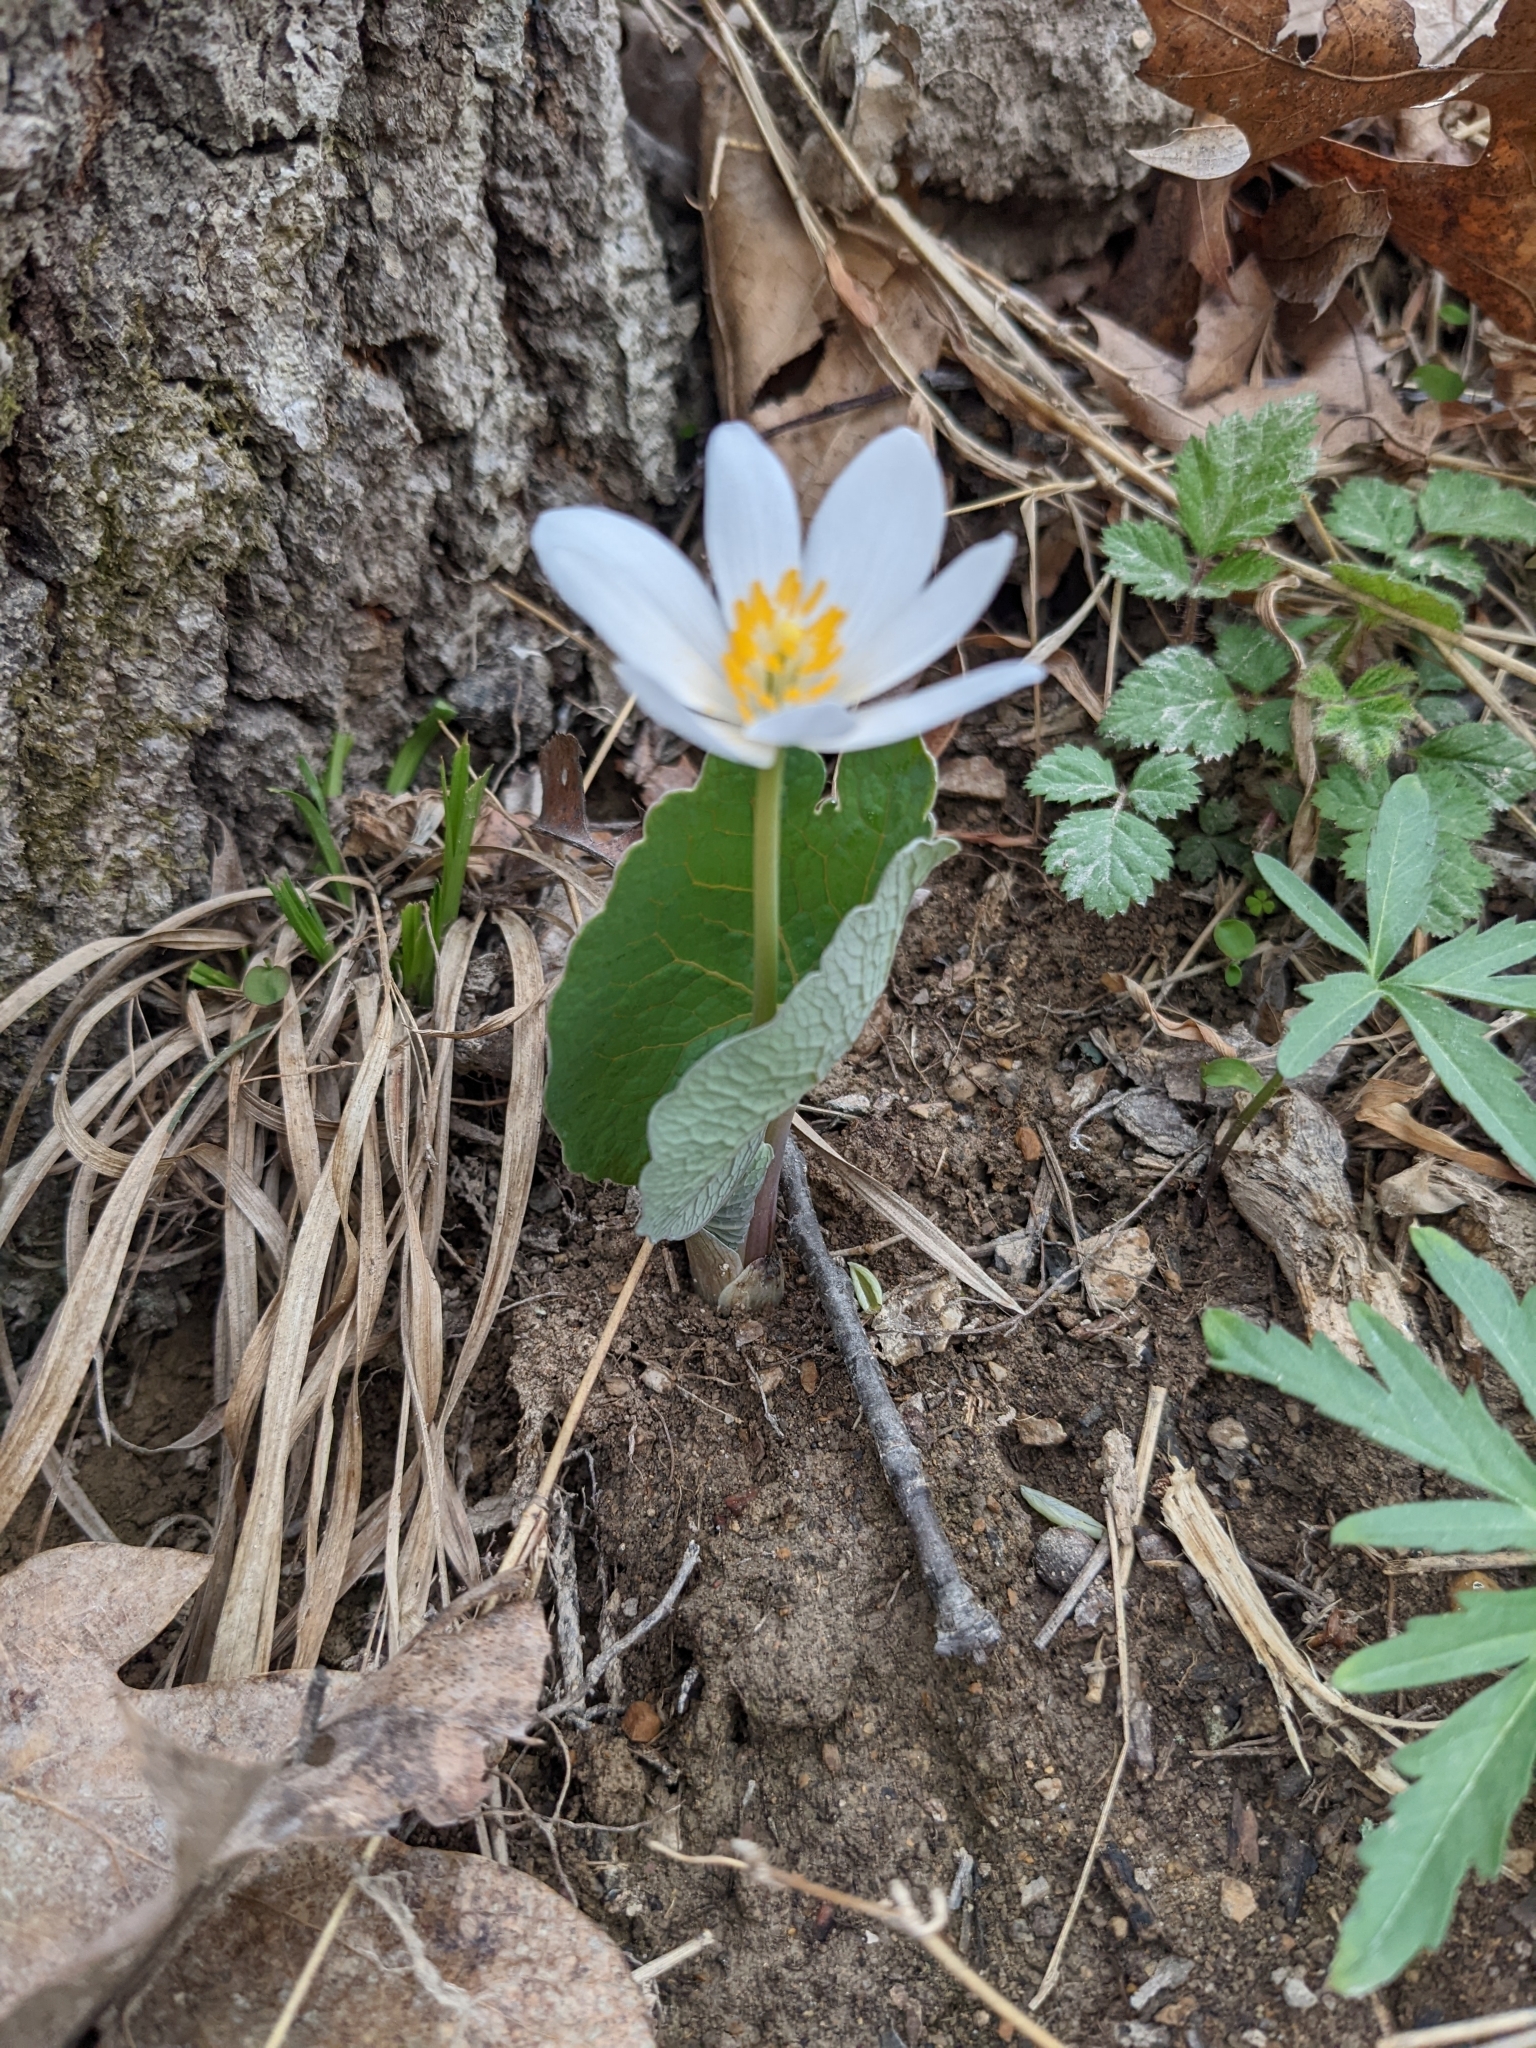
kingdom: Plantae
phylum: Tracheophyta
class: Magnoliopsida
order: Ranunculales
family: Papaveraceae
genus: Sanguinaria
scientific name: Sanguinaria canadensis
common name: Bloodroot
